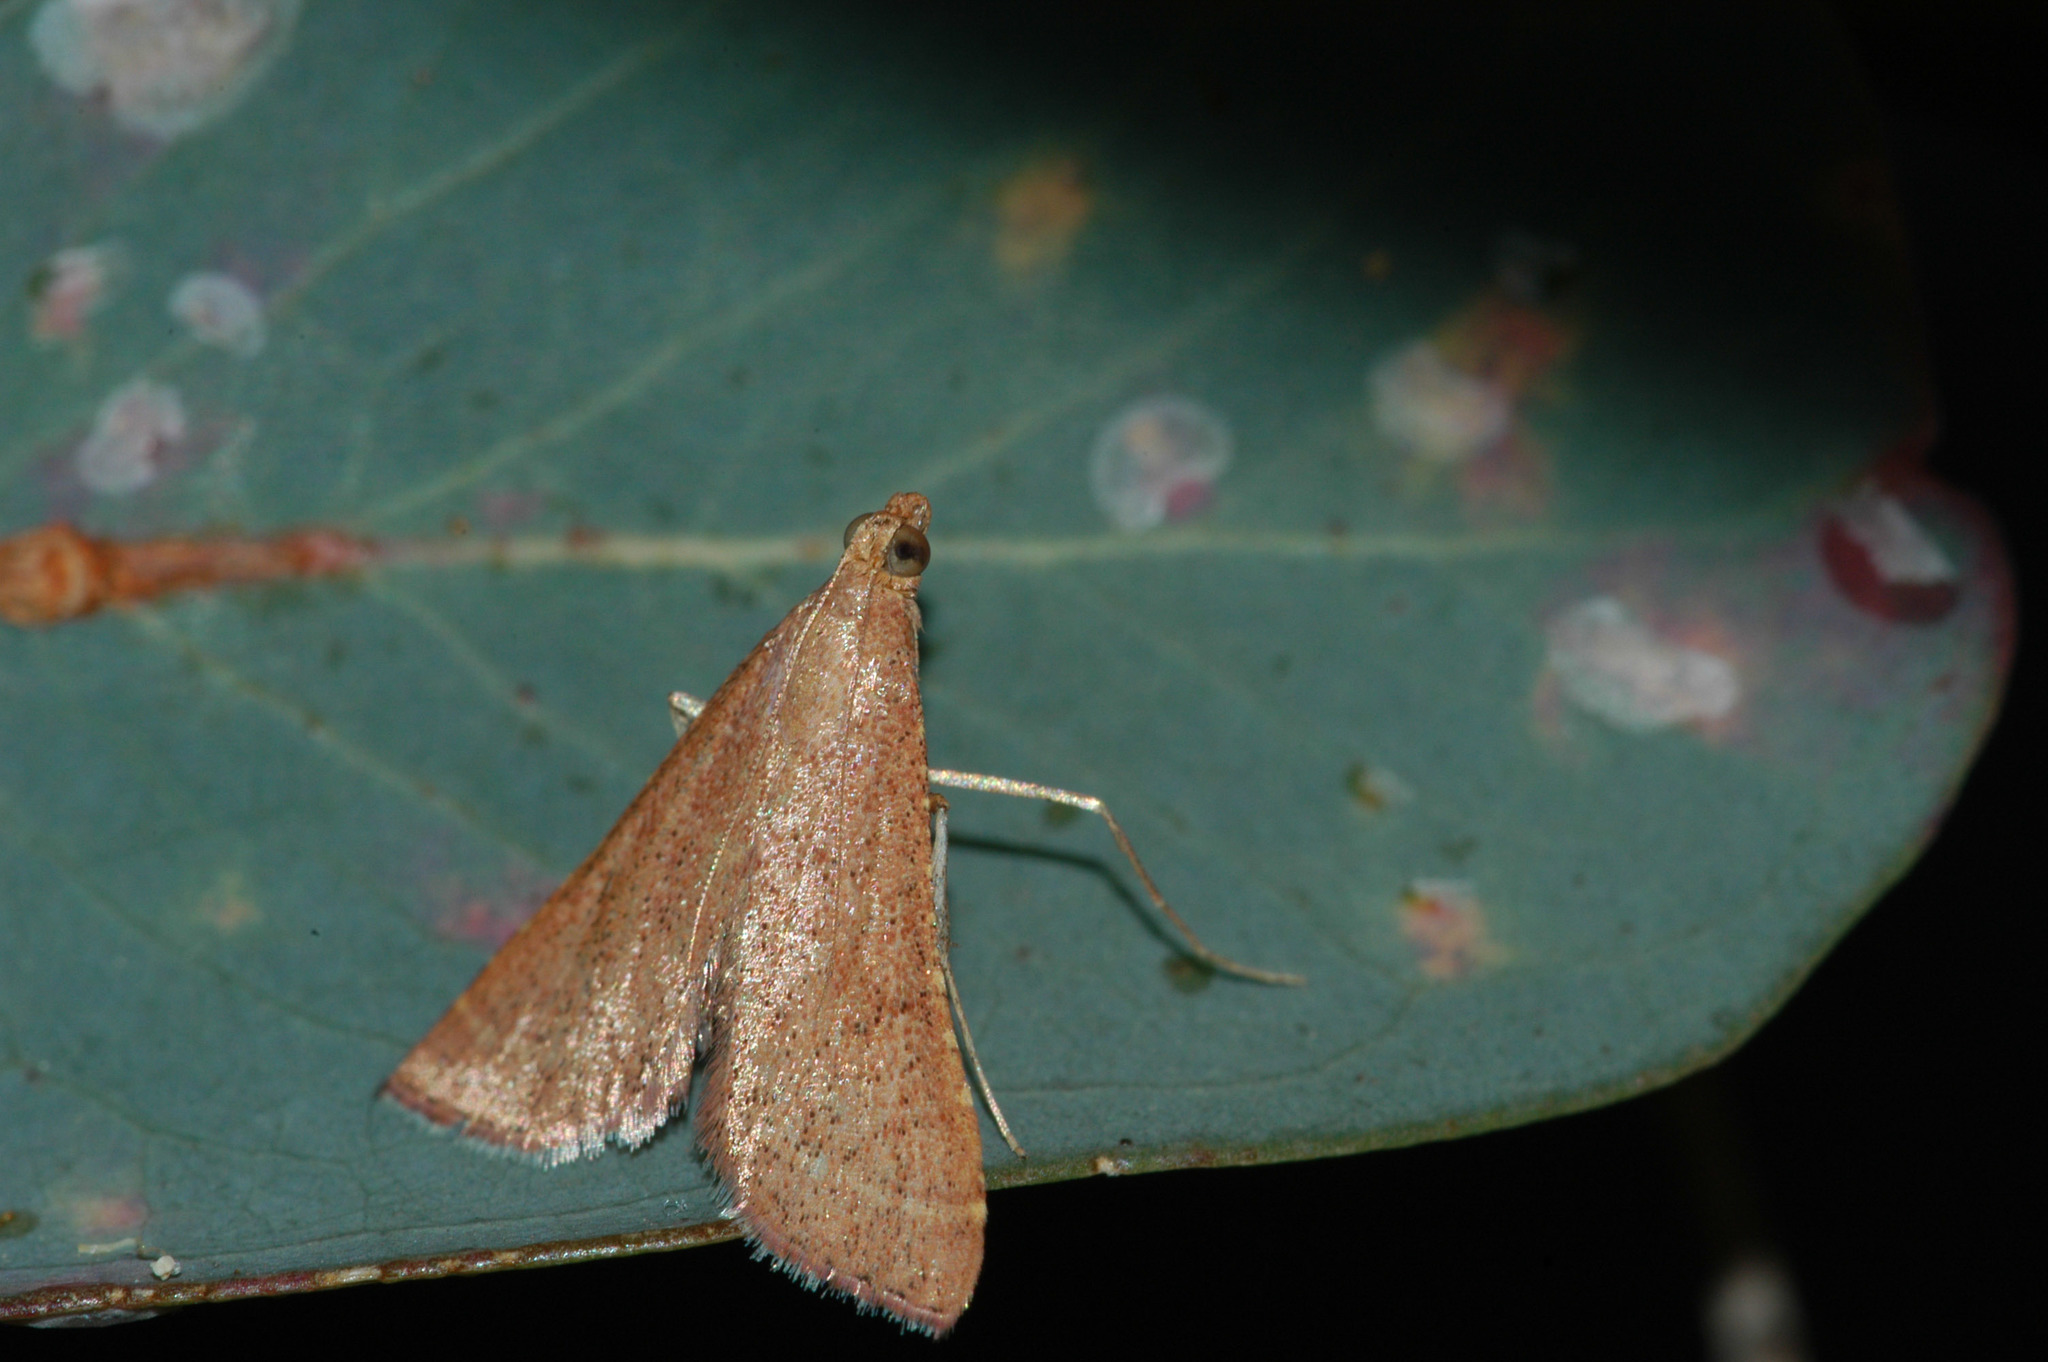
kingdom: Animalia
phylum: Arthropoda
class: Insecta
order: Lepidoptera
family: Pyralidae
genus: Endotricha
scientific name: Endotricha pyrosalis
